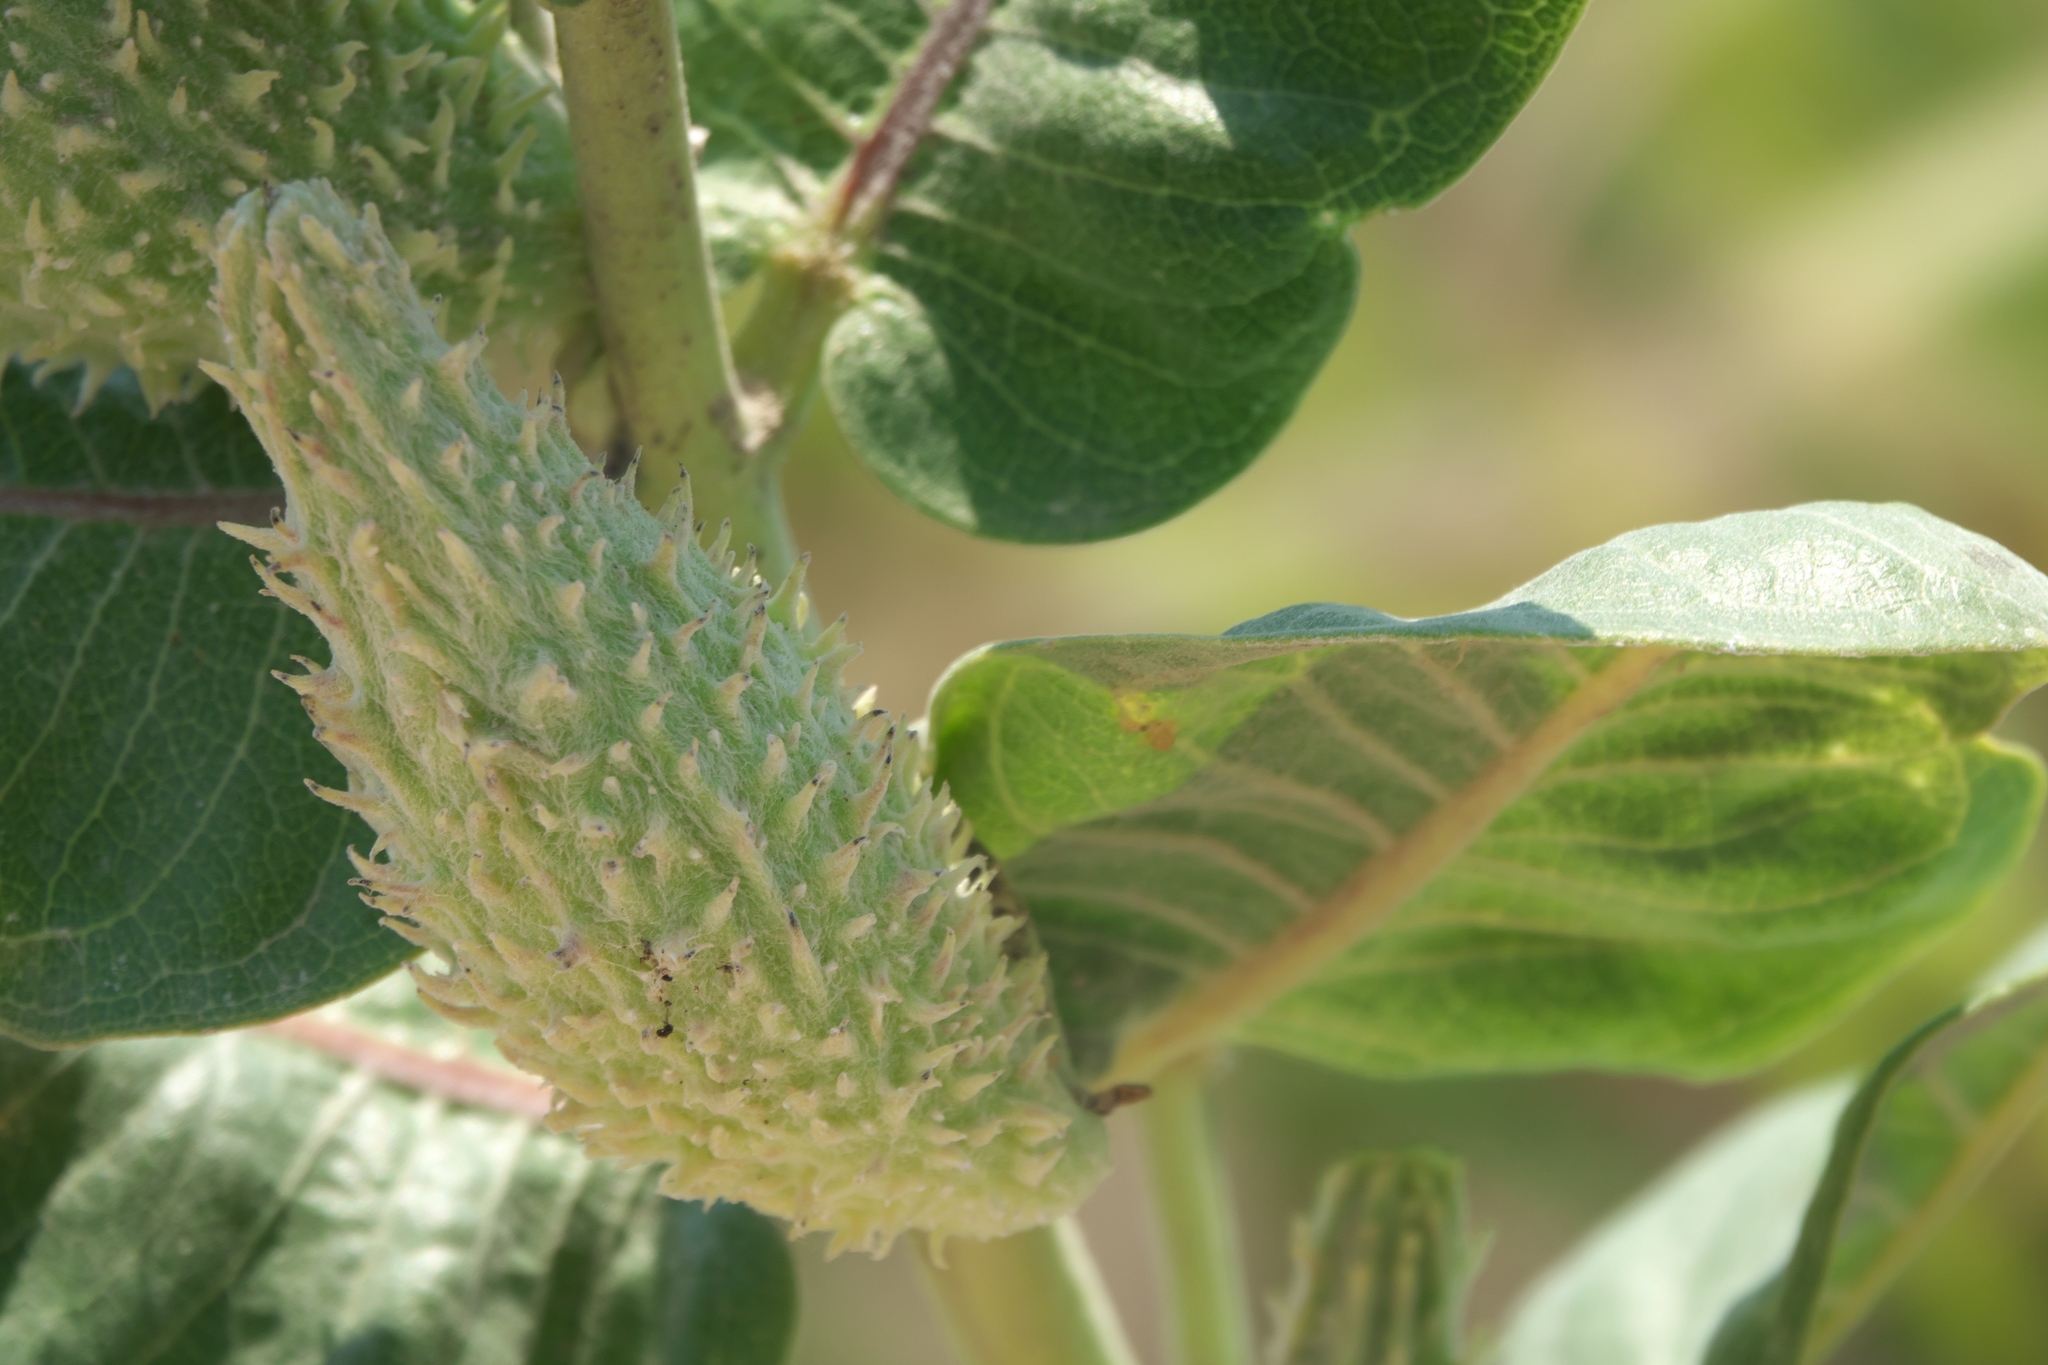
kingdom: Plantae
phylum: Tracheophyta
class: Magnoliopsida
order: Gentianales
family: Apocynaceae
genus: Asclepias
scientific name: Asclepias speciosa
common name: Showy milkweed
